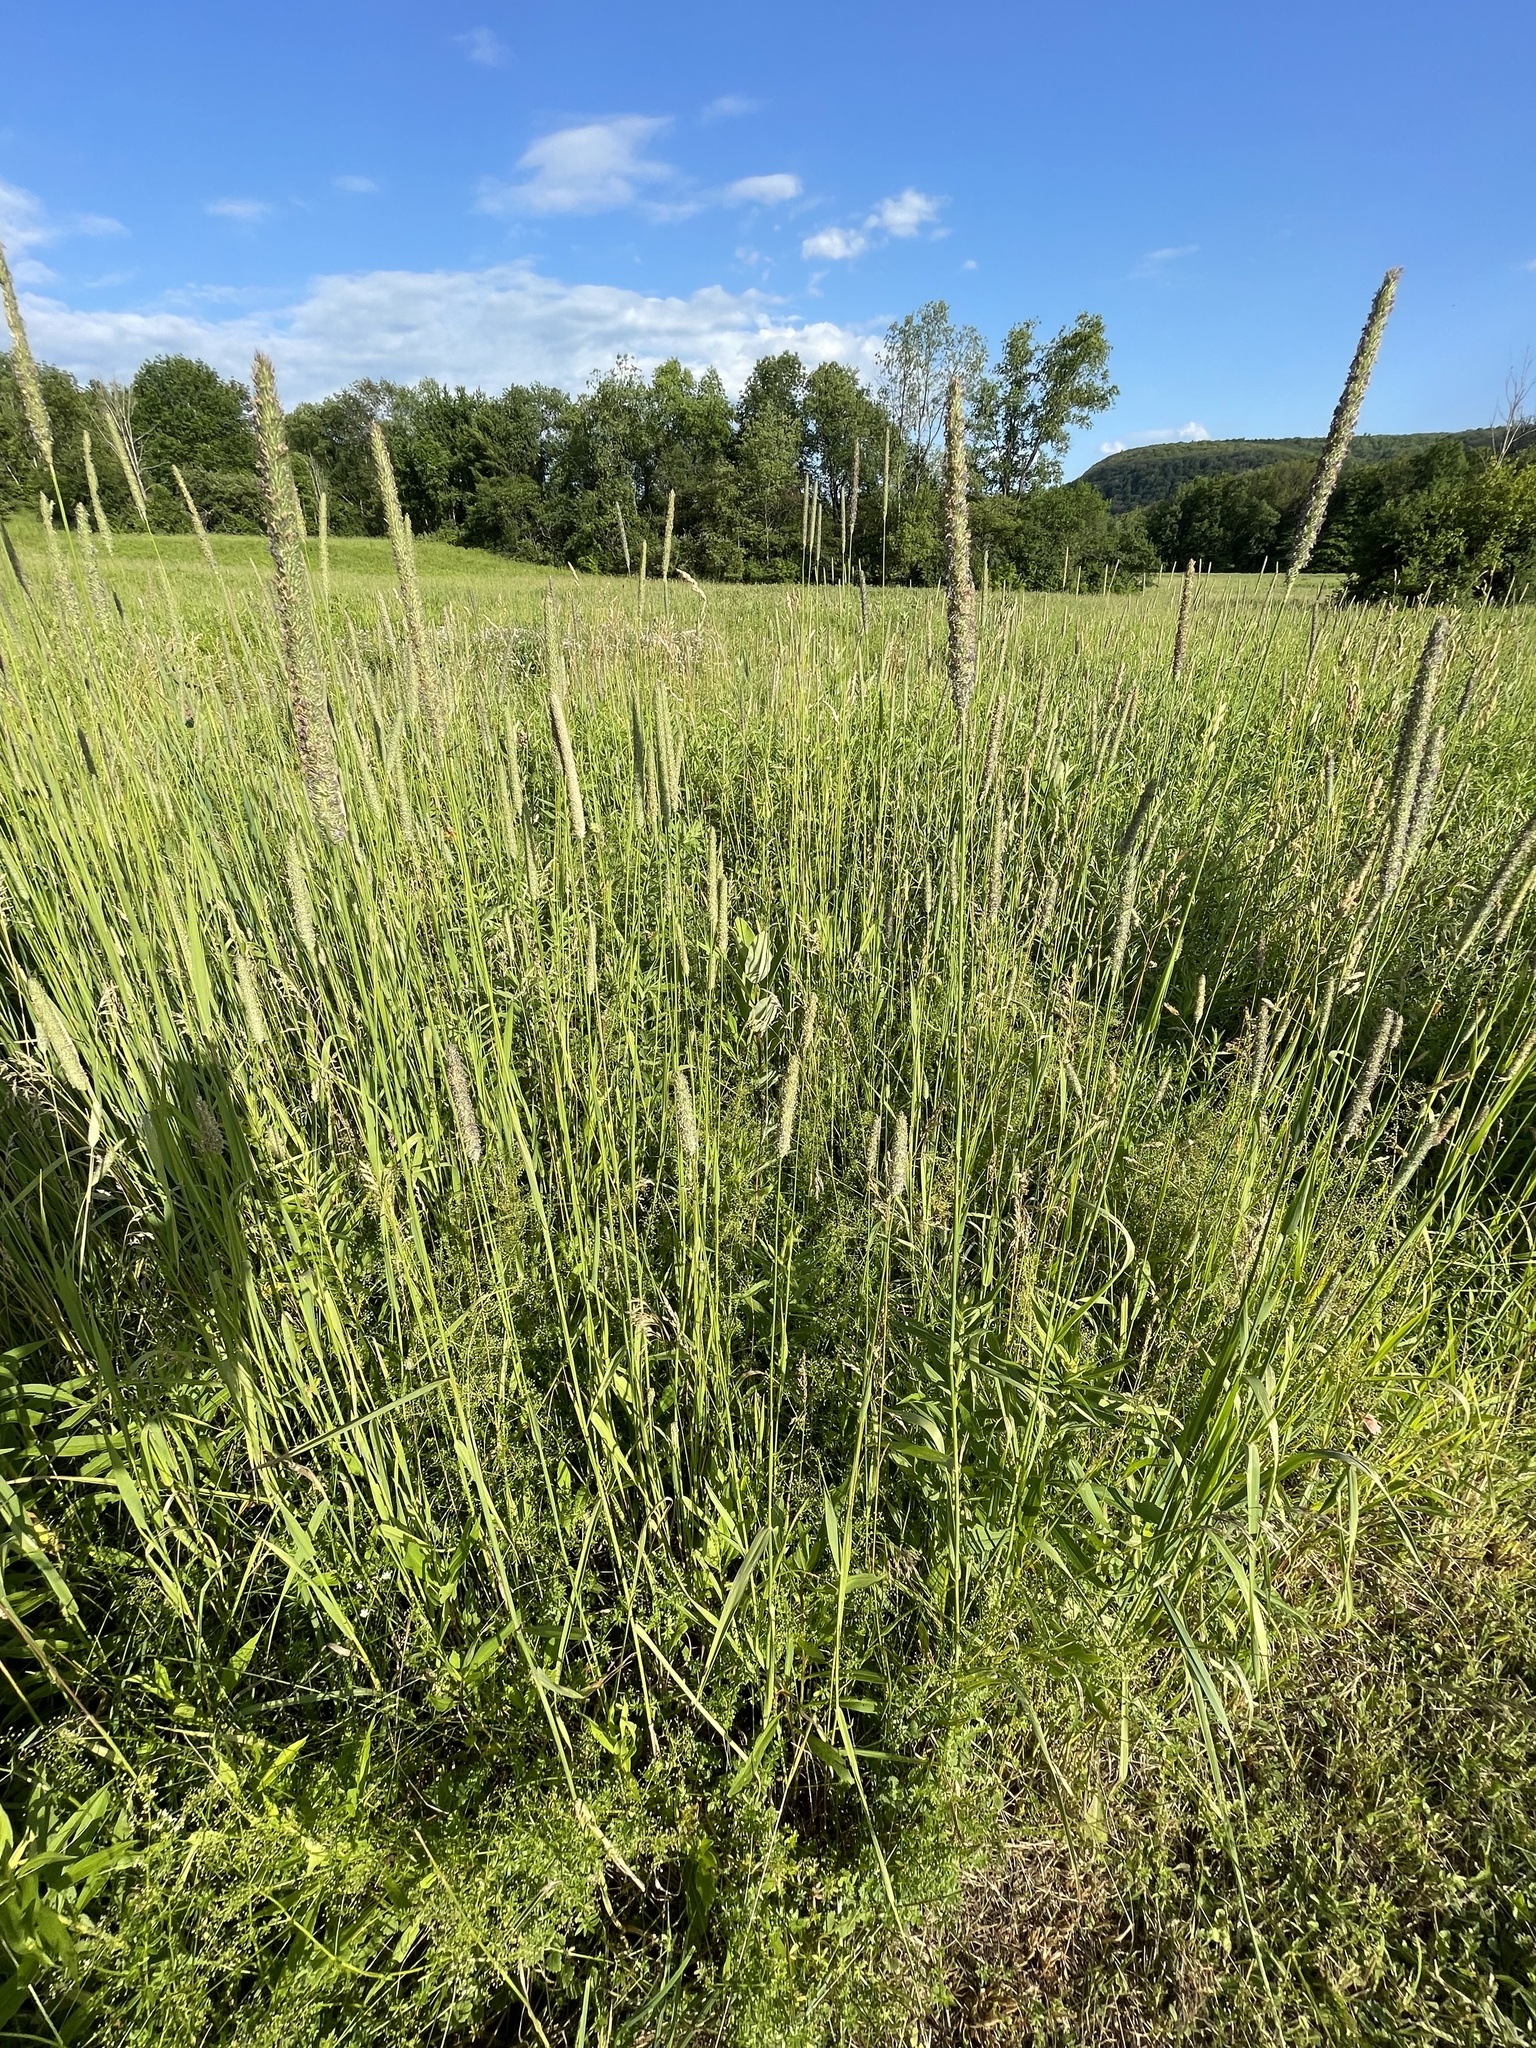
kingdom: Plantae
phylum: Tracheophyta
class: Liliopsida
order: Poales
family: Poaceae
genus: Phleum
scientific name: Phleum pratense
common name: Timothy grass
